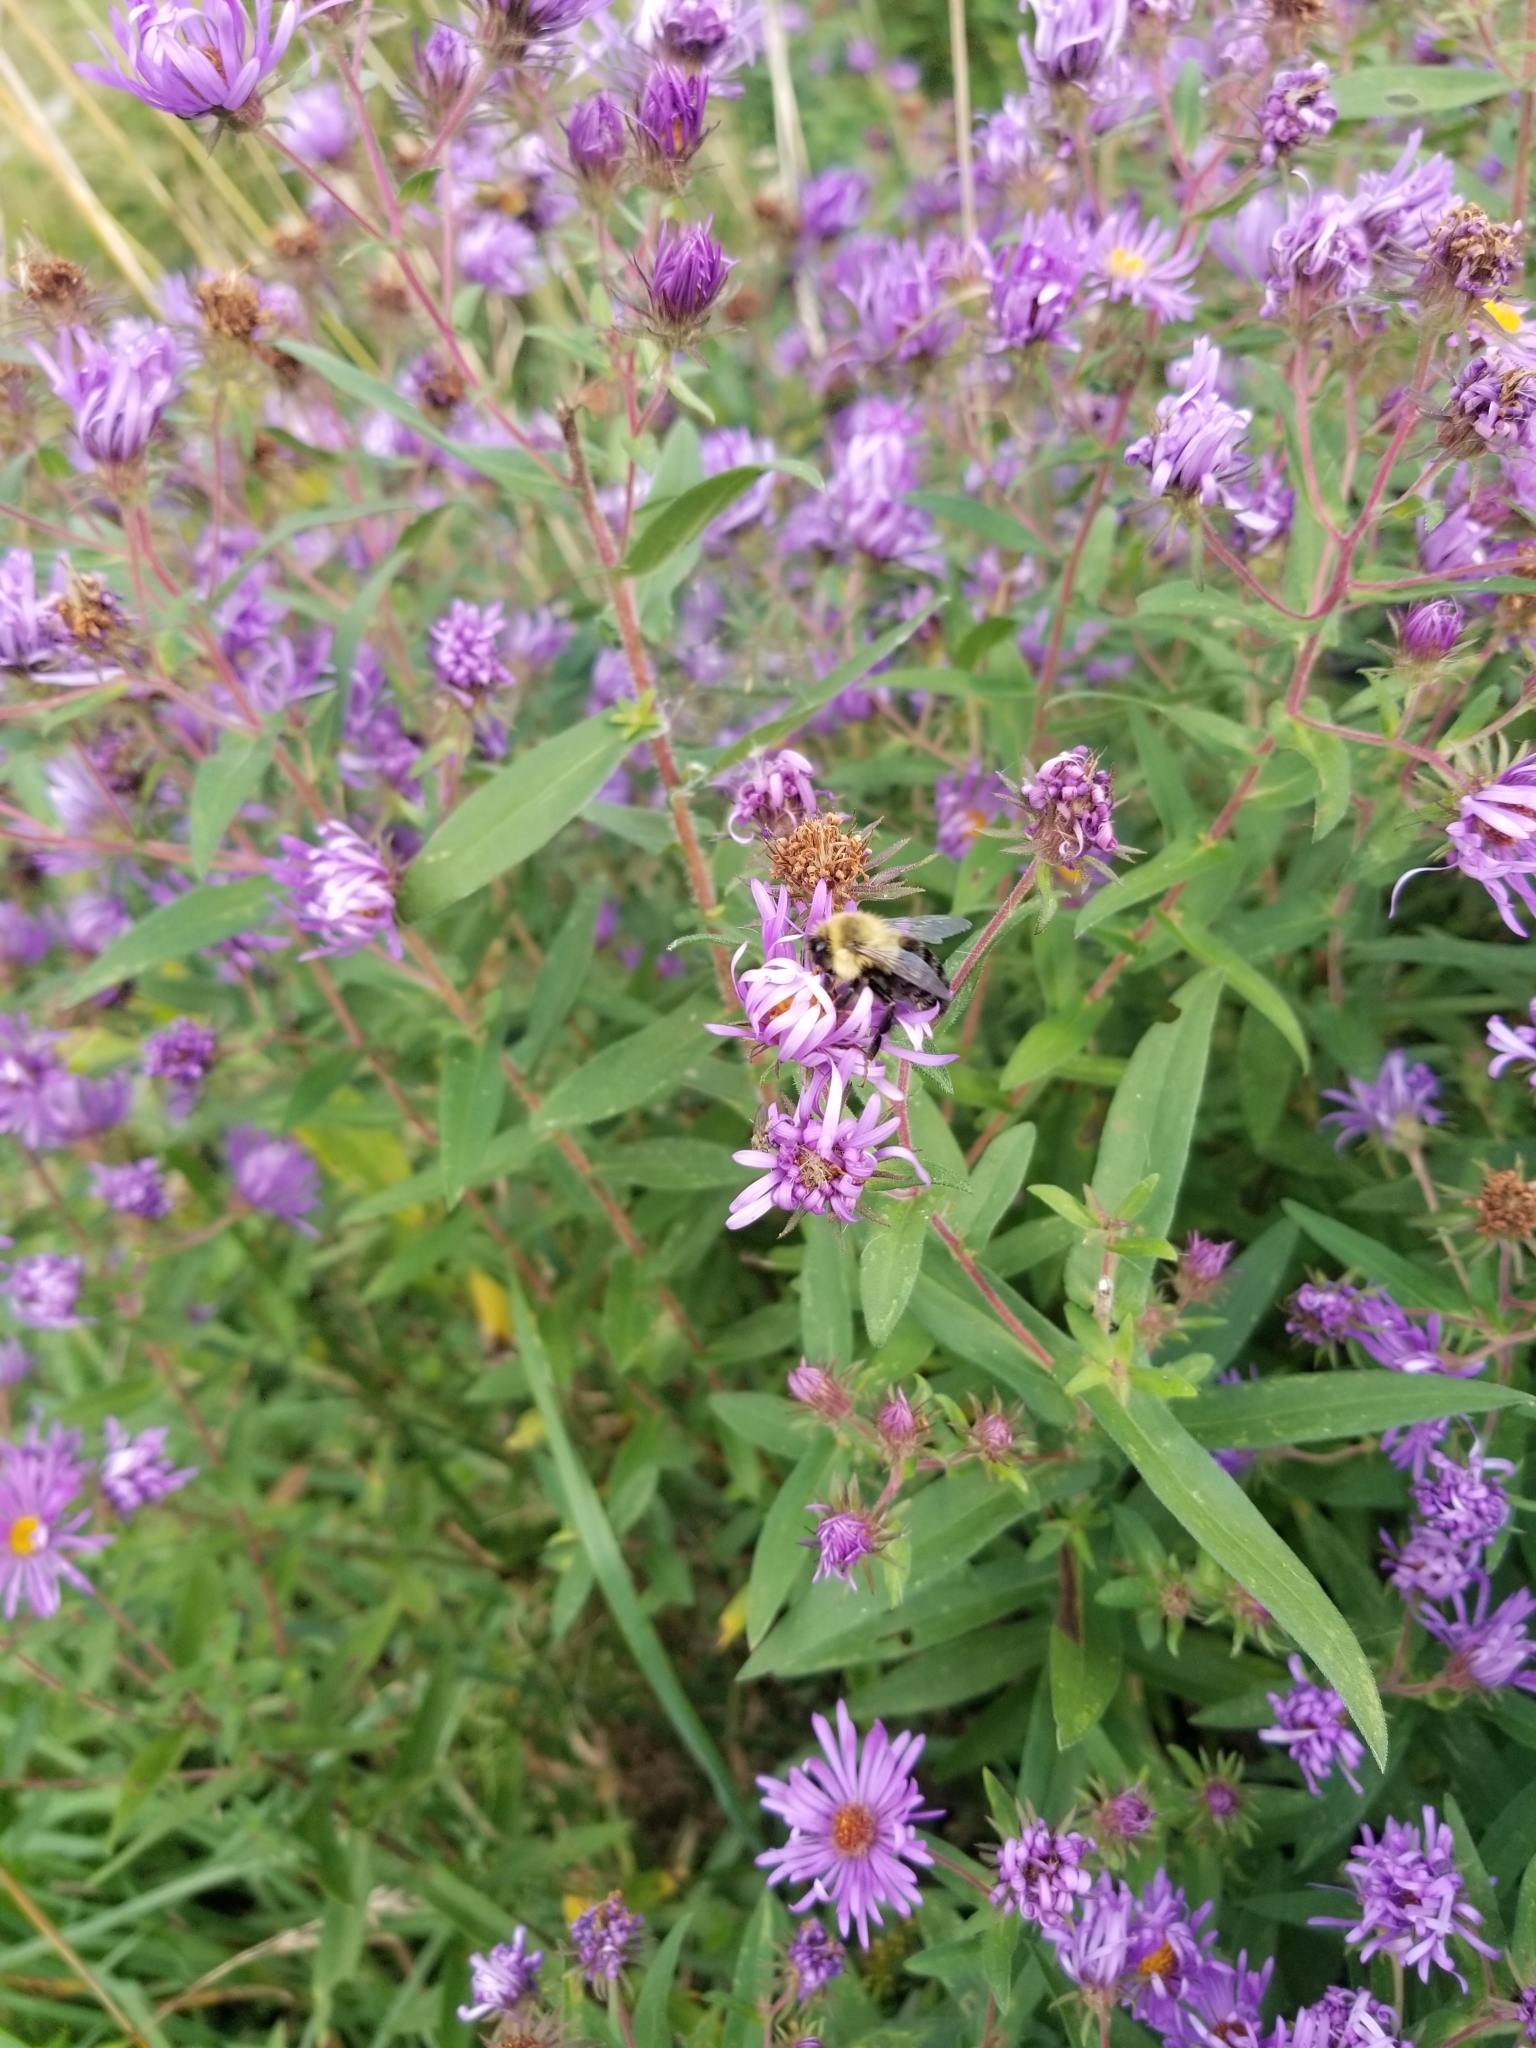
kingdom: Animalia
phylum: Arthropoda
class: Insecta
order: Hymenoptera
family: Apidae
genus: Bombus
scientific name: Bombus impatiens
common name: Common eastern bumble bee
